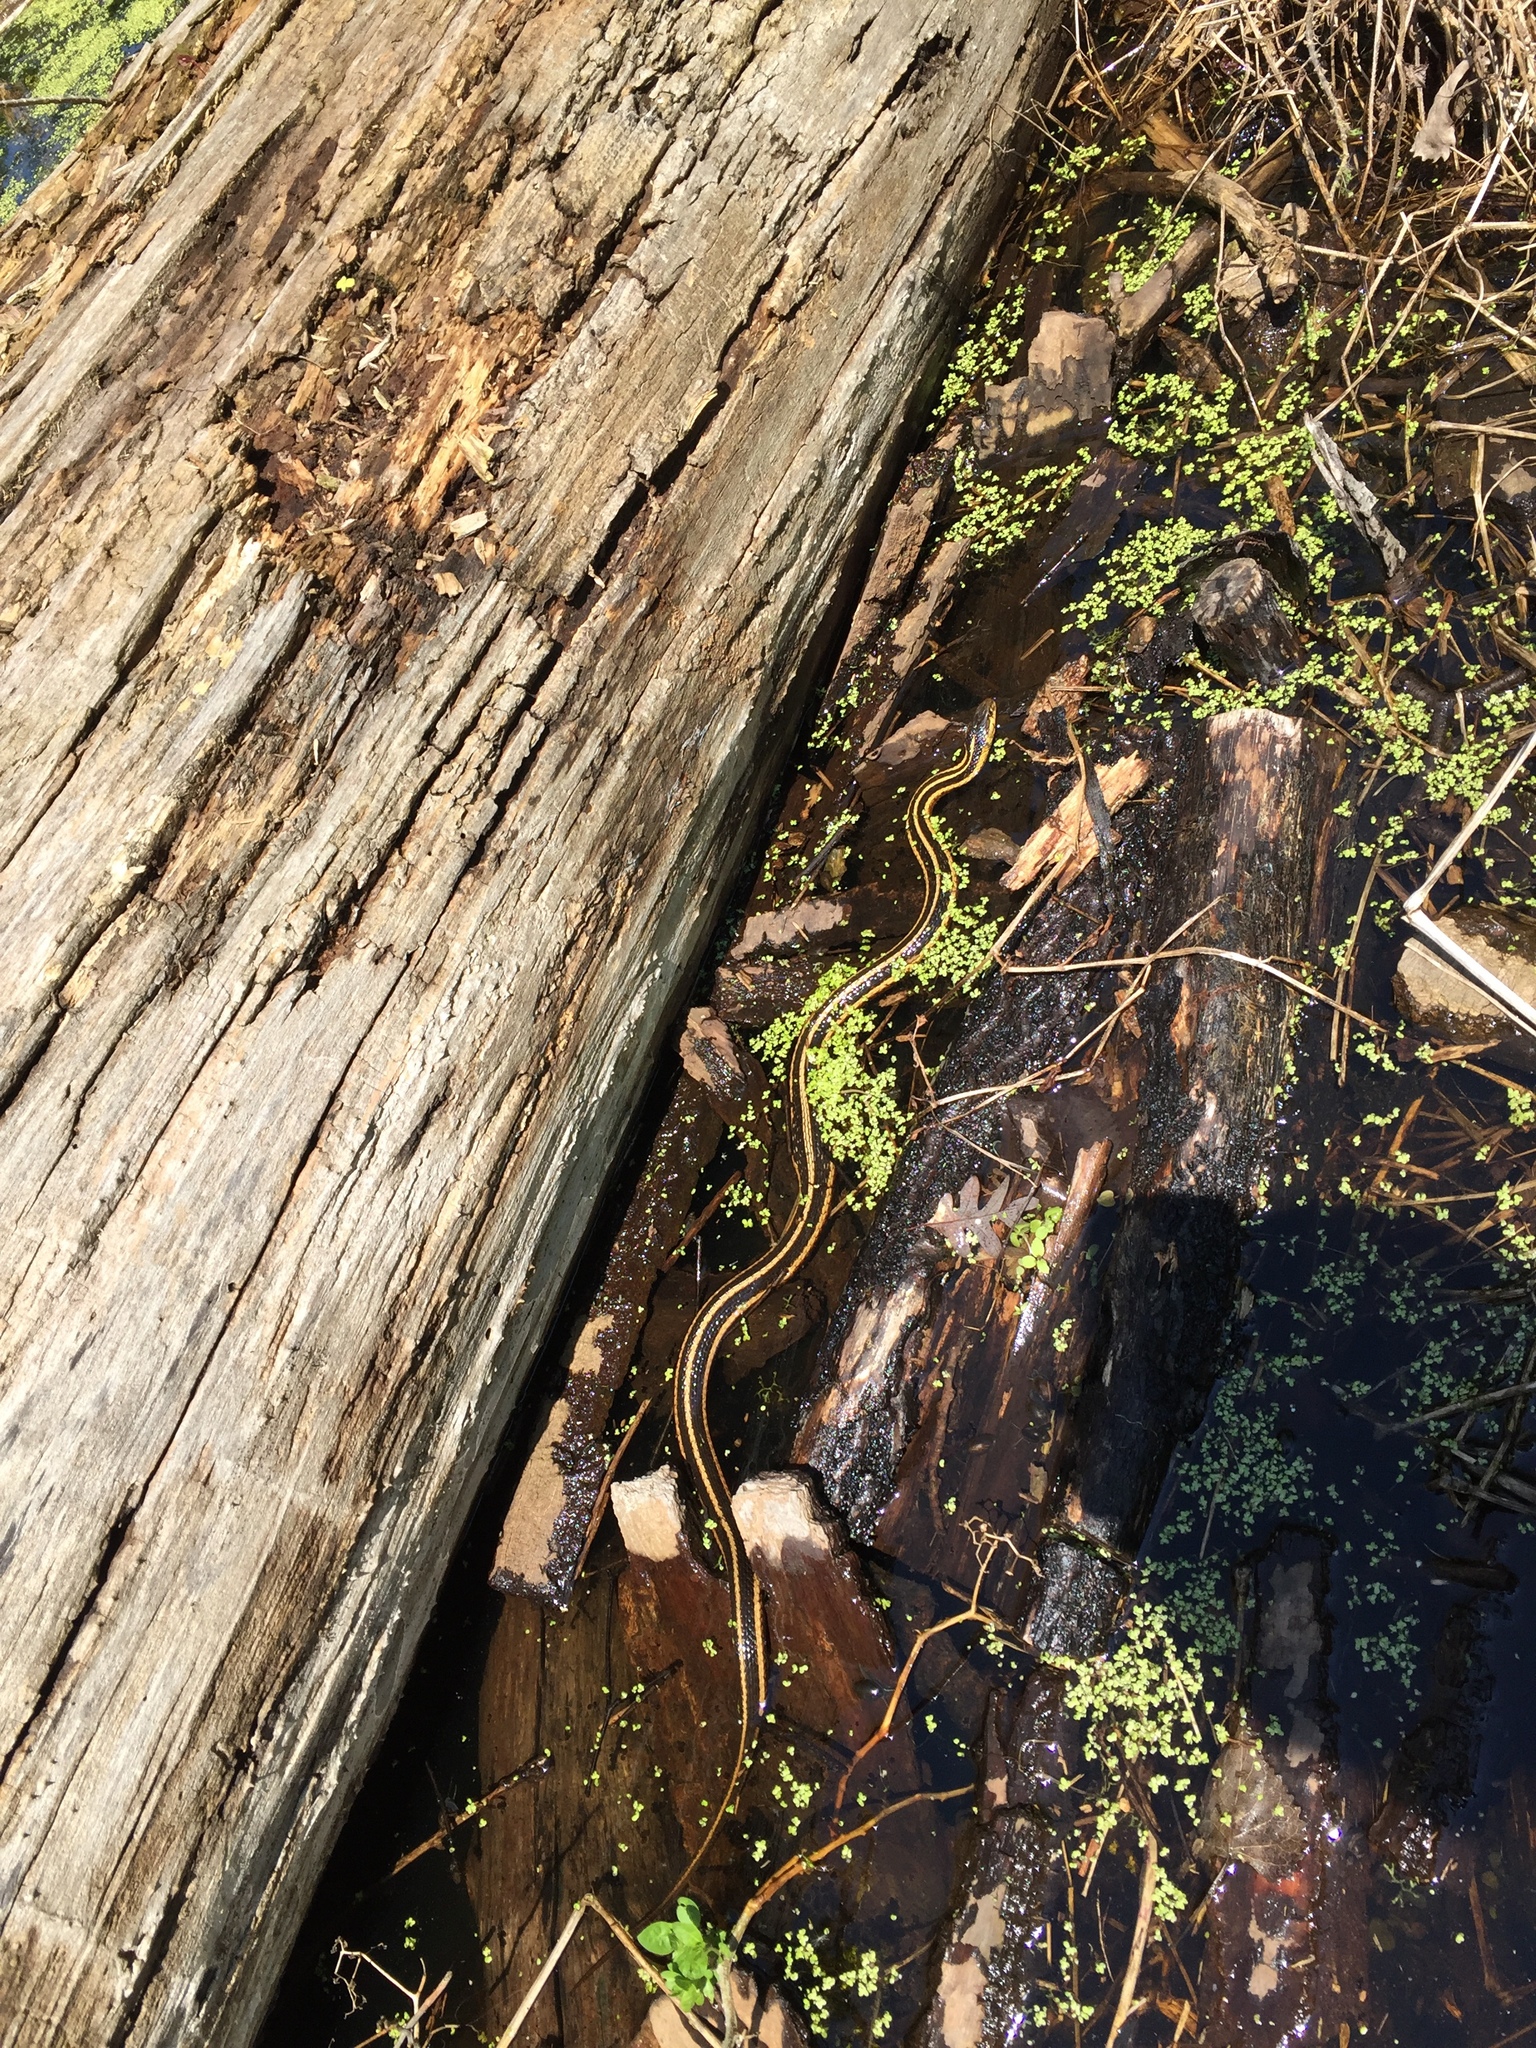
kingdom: Animalia
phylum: Chordata
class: Squamata
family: Colubridae
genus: Thamnophis
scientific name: Thamnophis sirtalis
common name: Common garter snake
